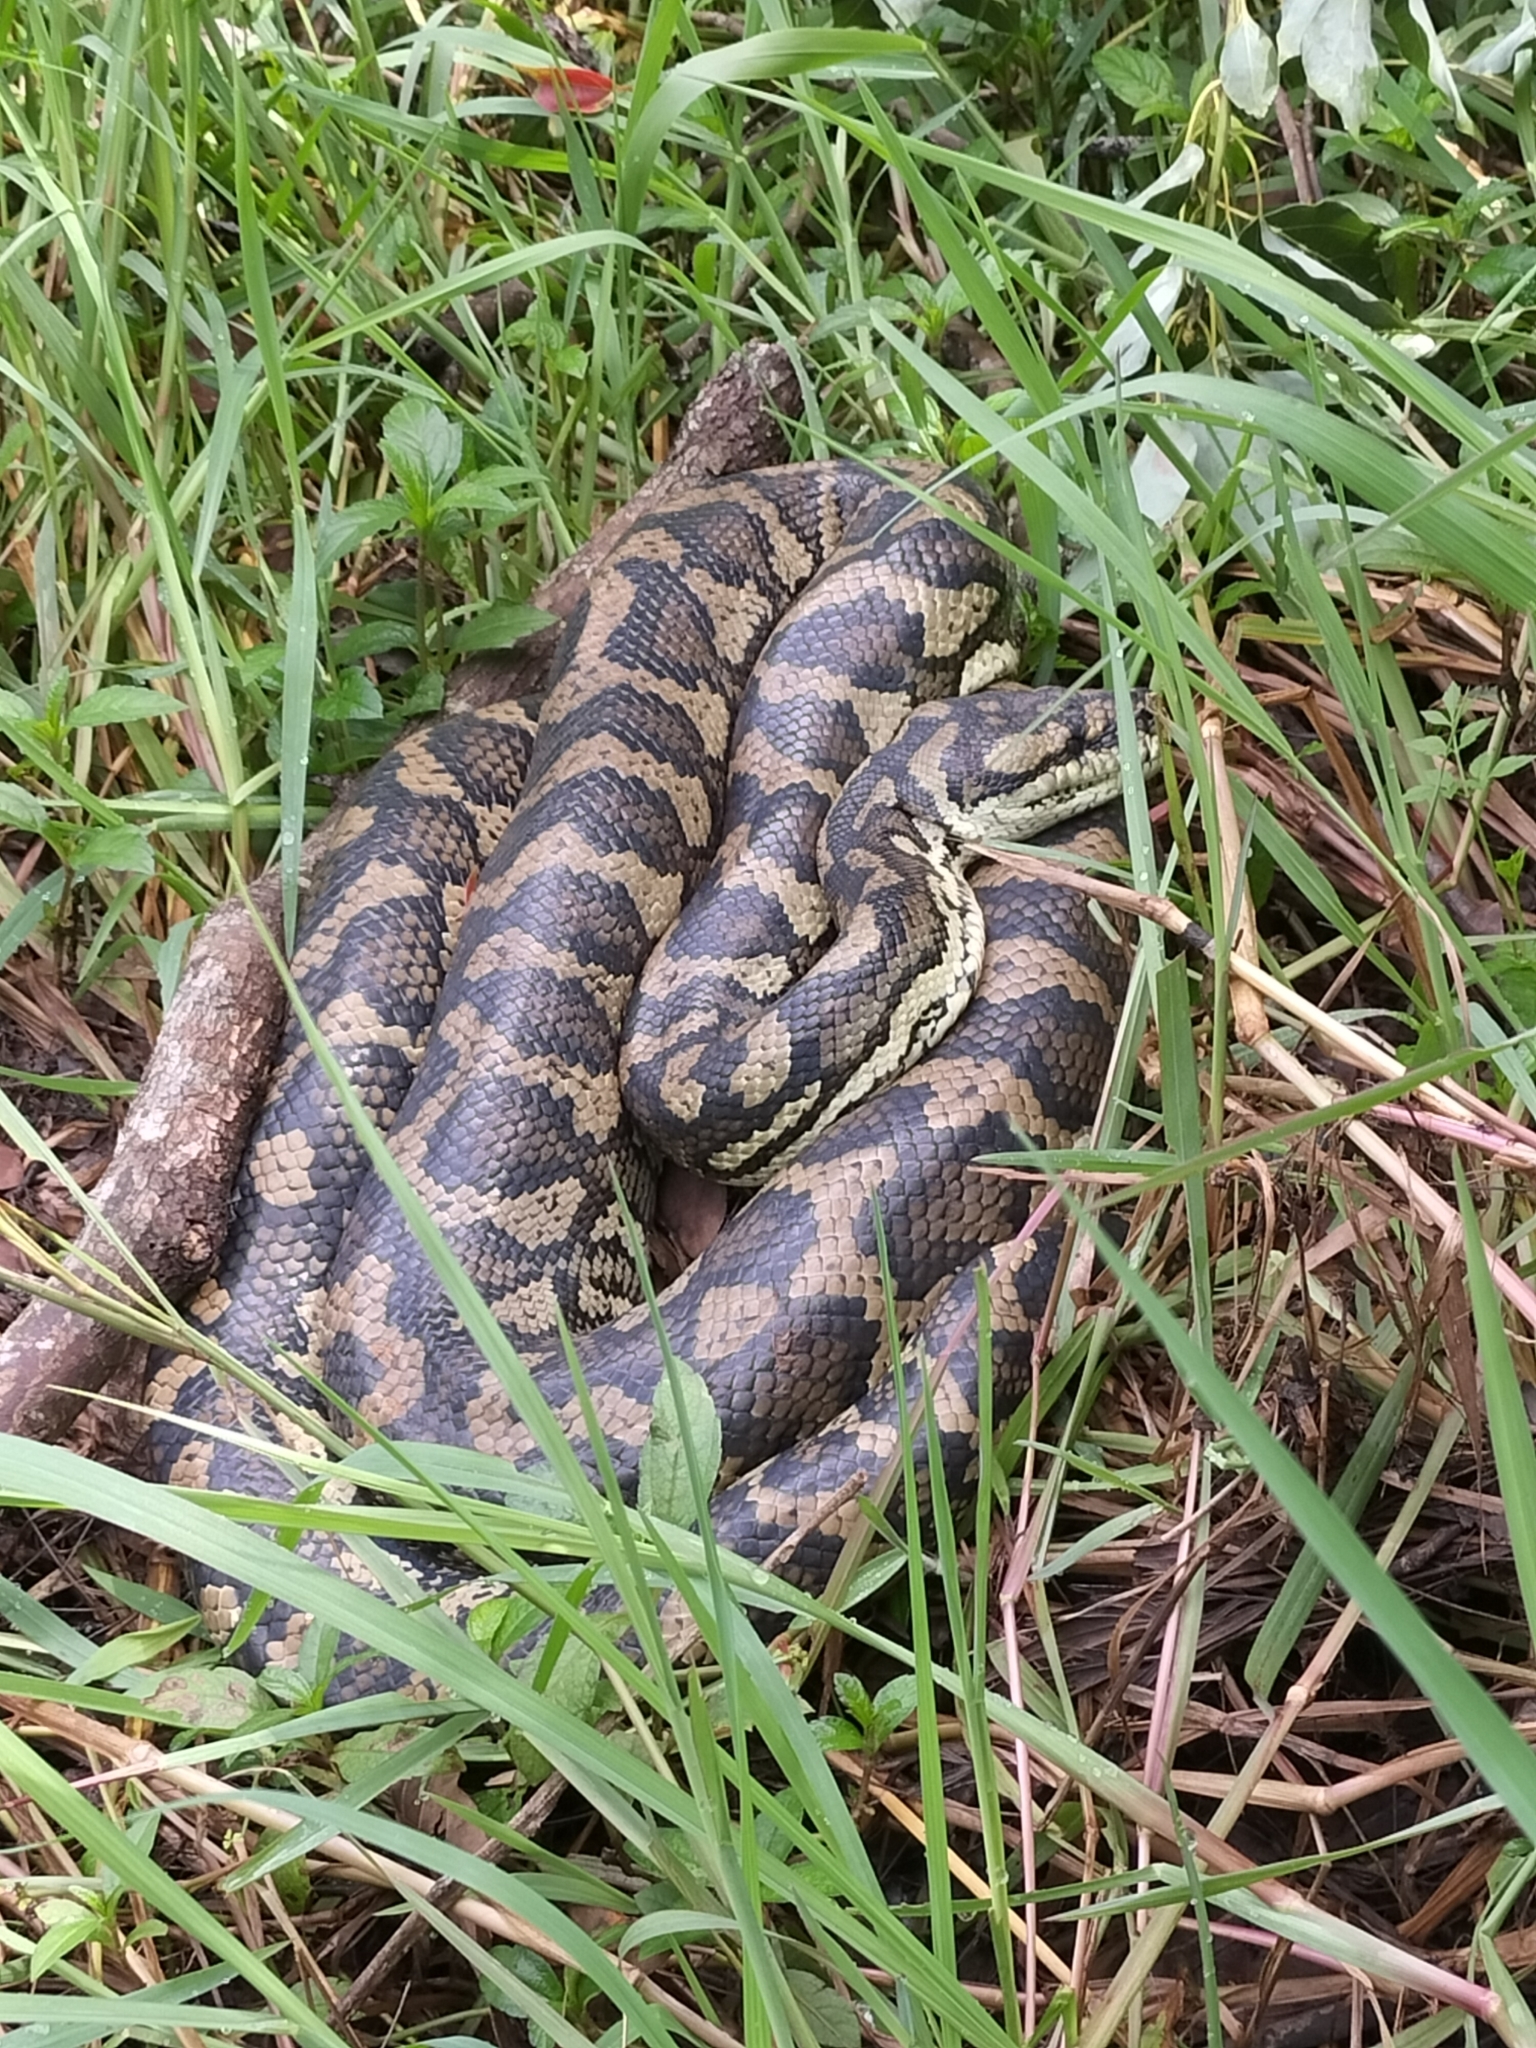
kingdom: Animalia
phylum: Chordata
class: Squamata
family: Pythonidae
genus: Morelia
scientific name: Morelia spilota
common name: Carpet python
